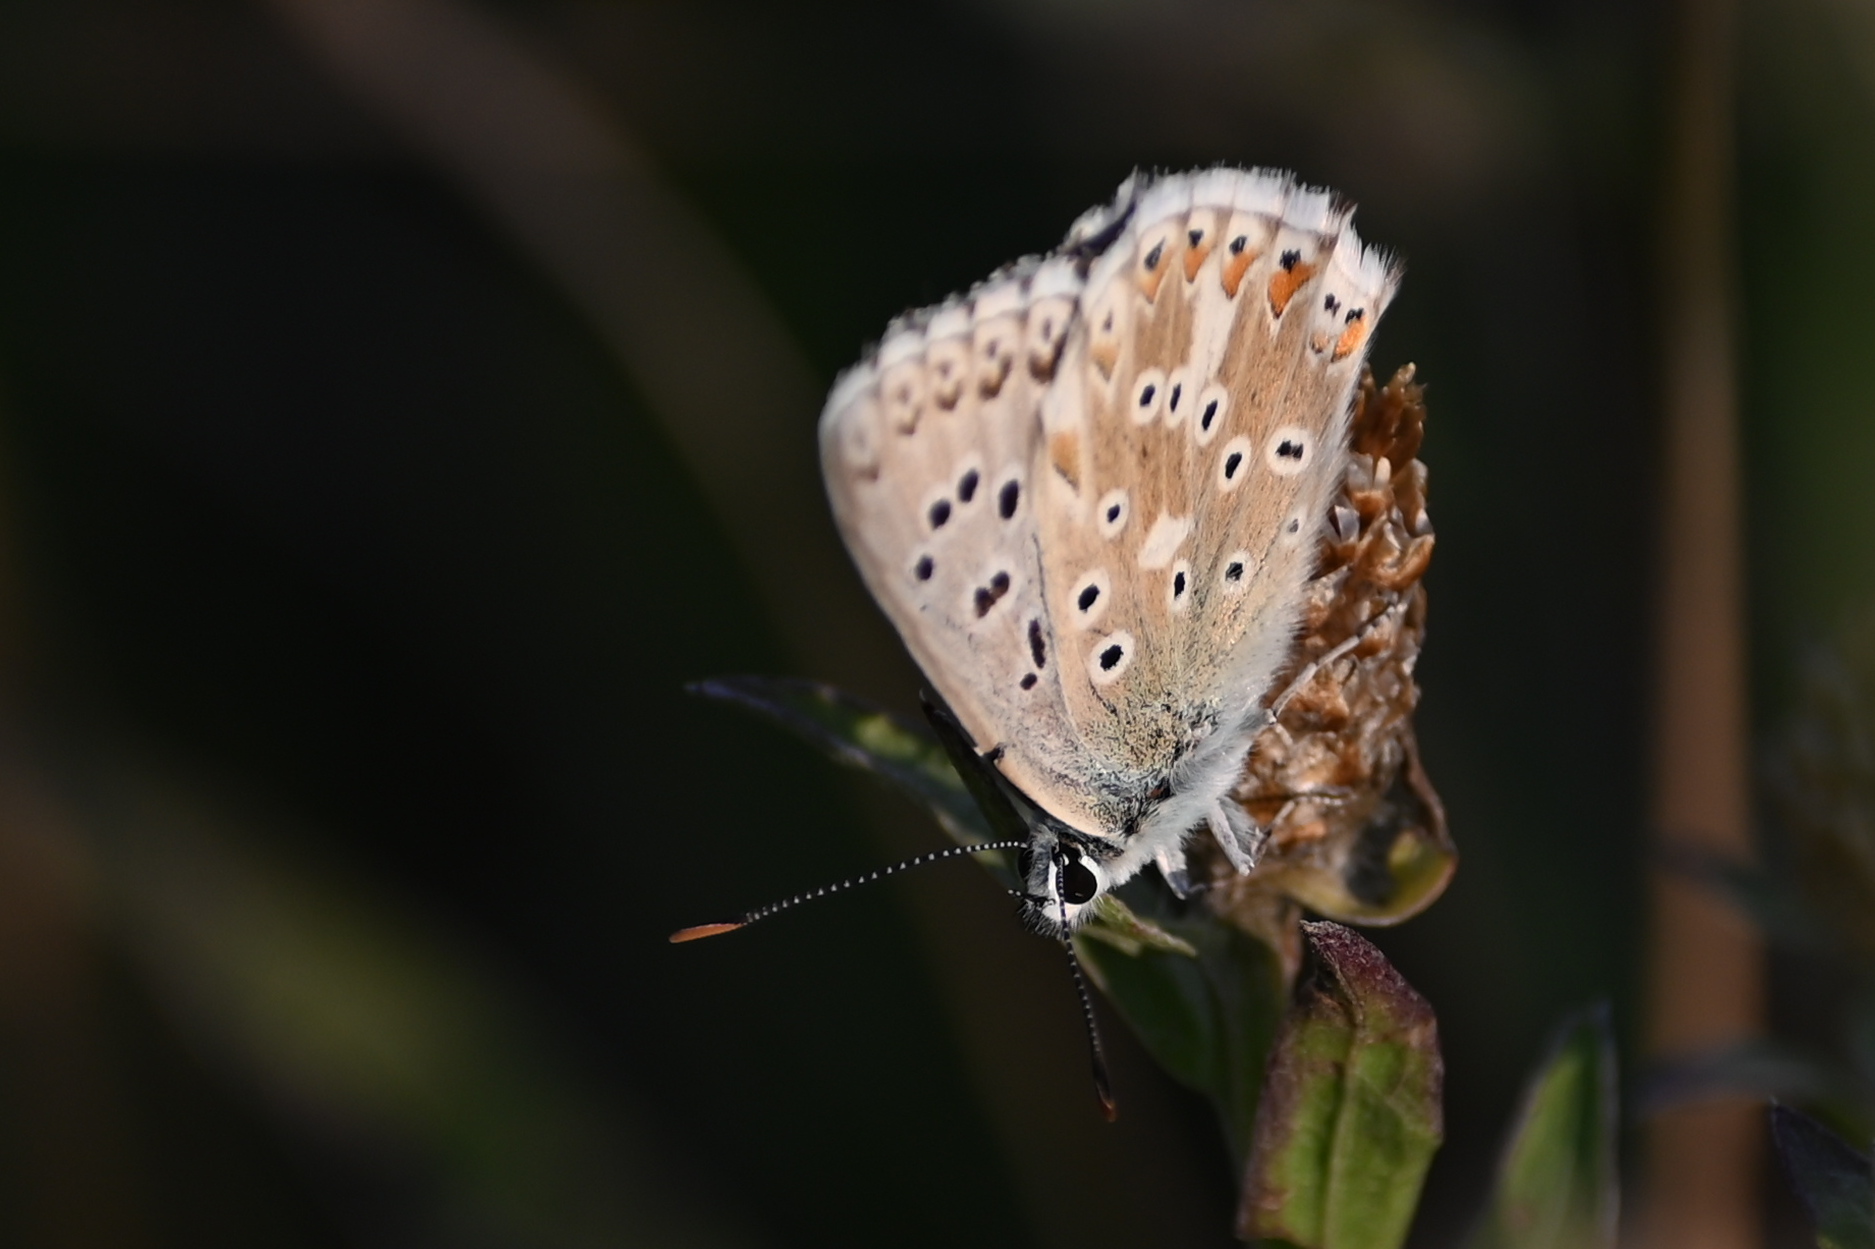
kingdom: Animalia
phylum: Arthropoda
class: Insecta
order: Lepidoptera
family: Lycaenidae
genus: Lysandra
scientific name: Lysandra coridon
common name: Chalkhill blue
